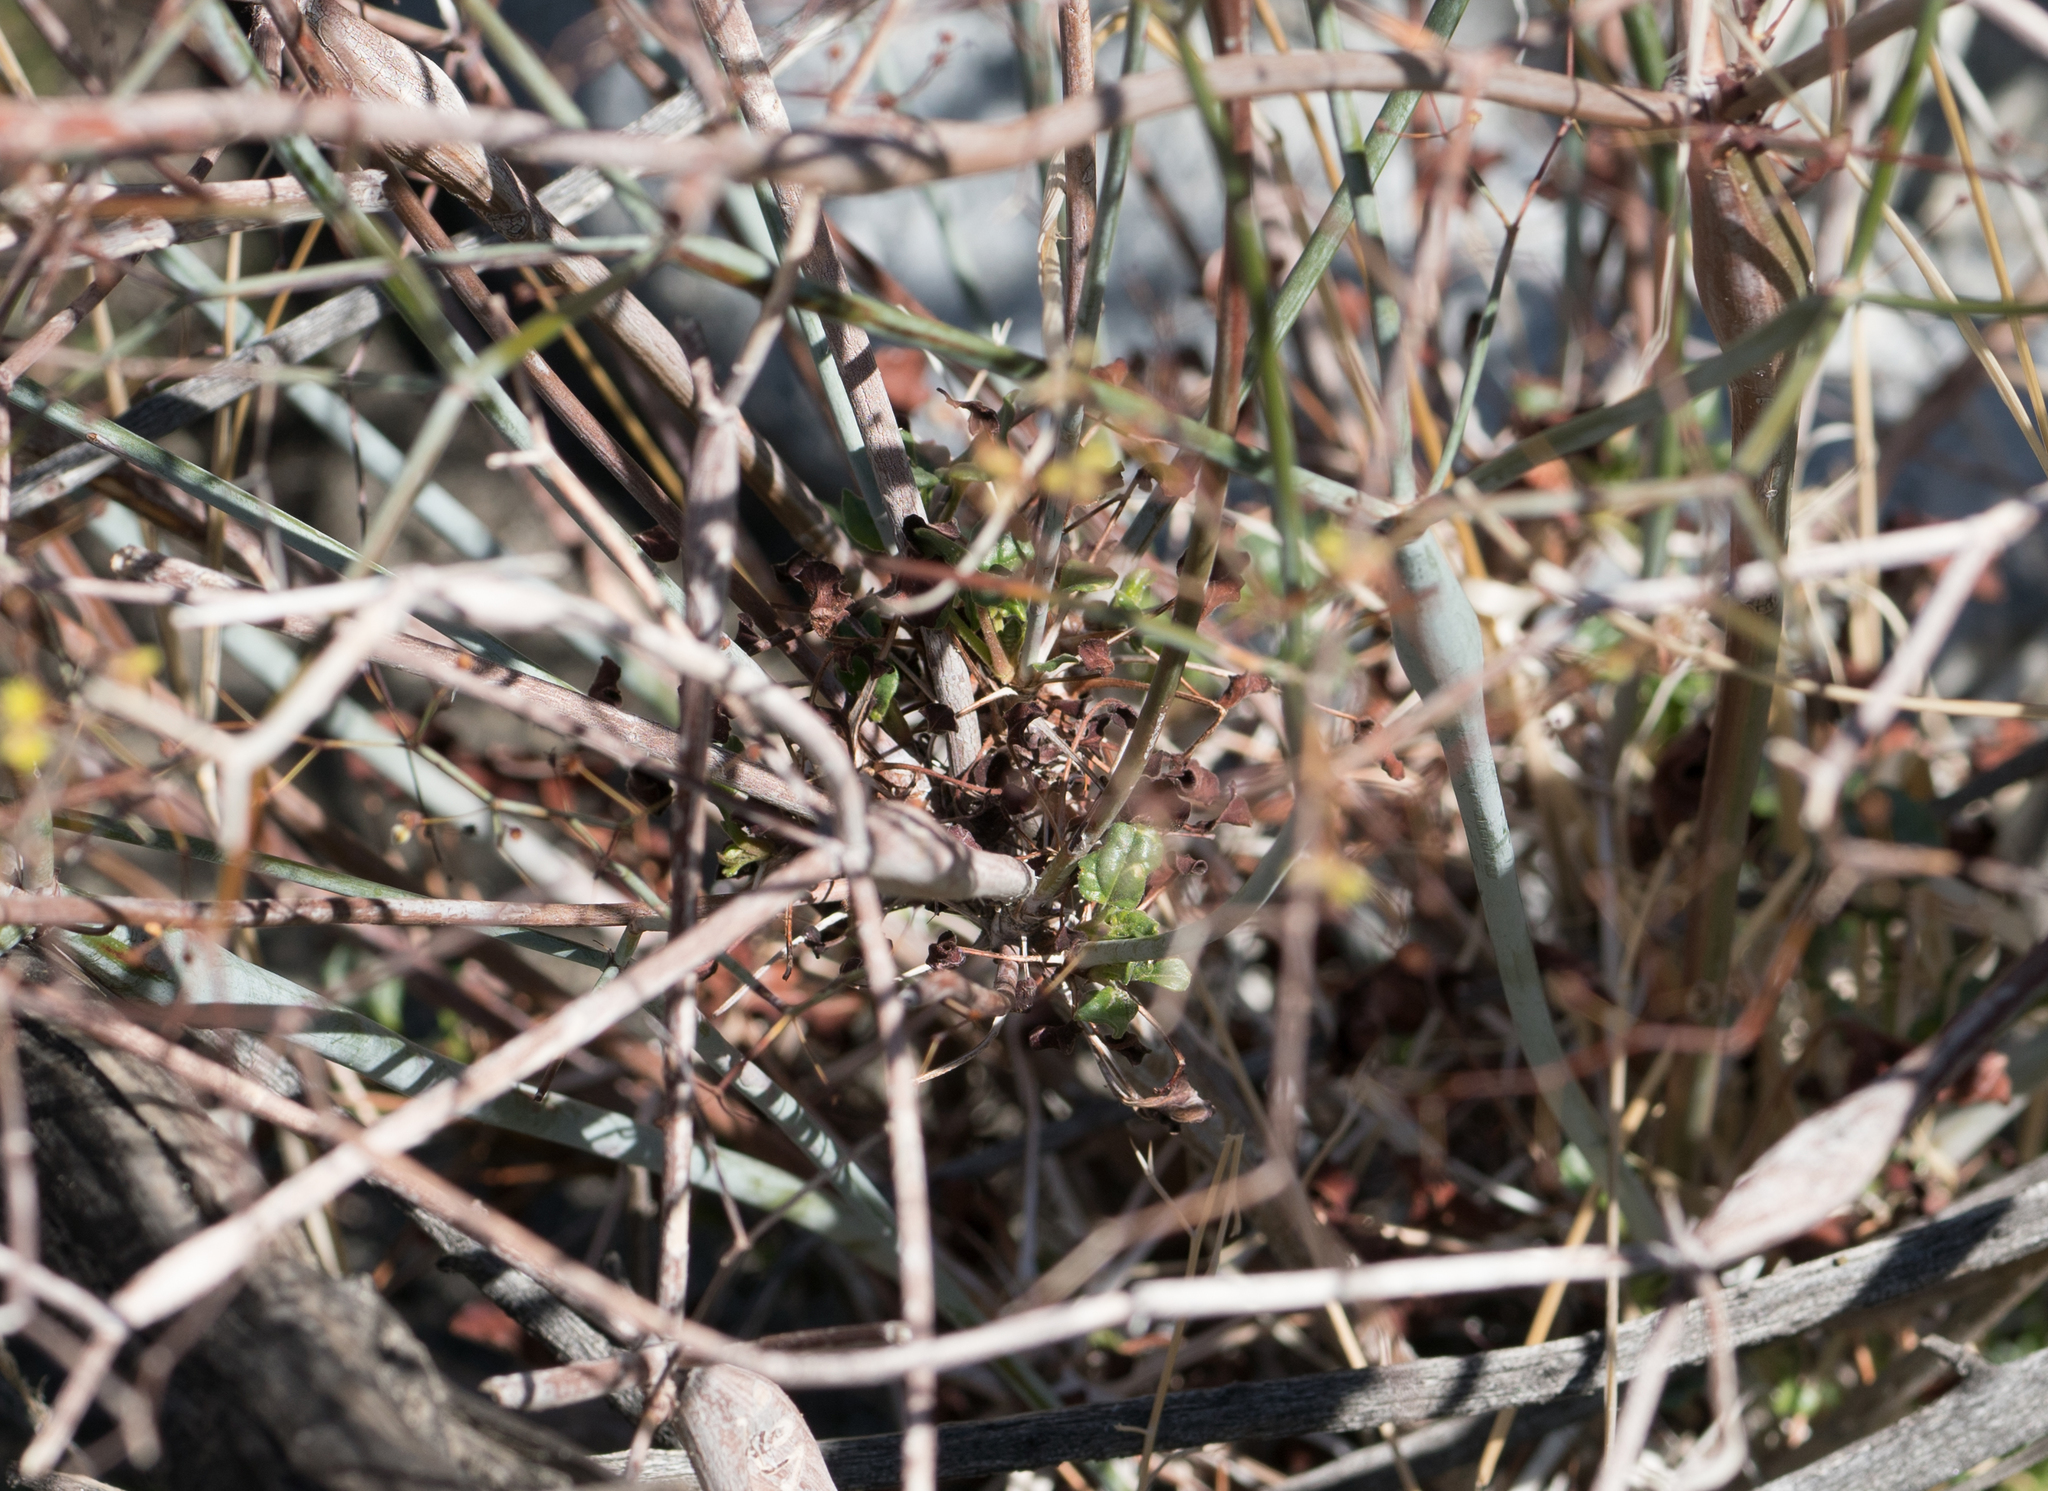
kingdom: Plantae
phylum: Tracheophyta
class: Magnoliopsida
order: Caryophyllales
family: Polygonaceae
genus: Eriogonum
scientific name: Eriogonum inflatum
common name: Desert trumpet
